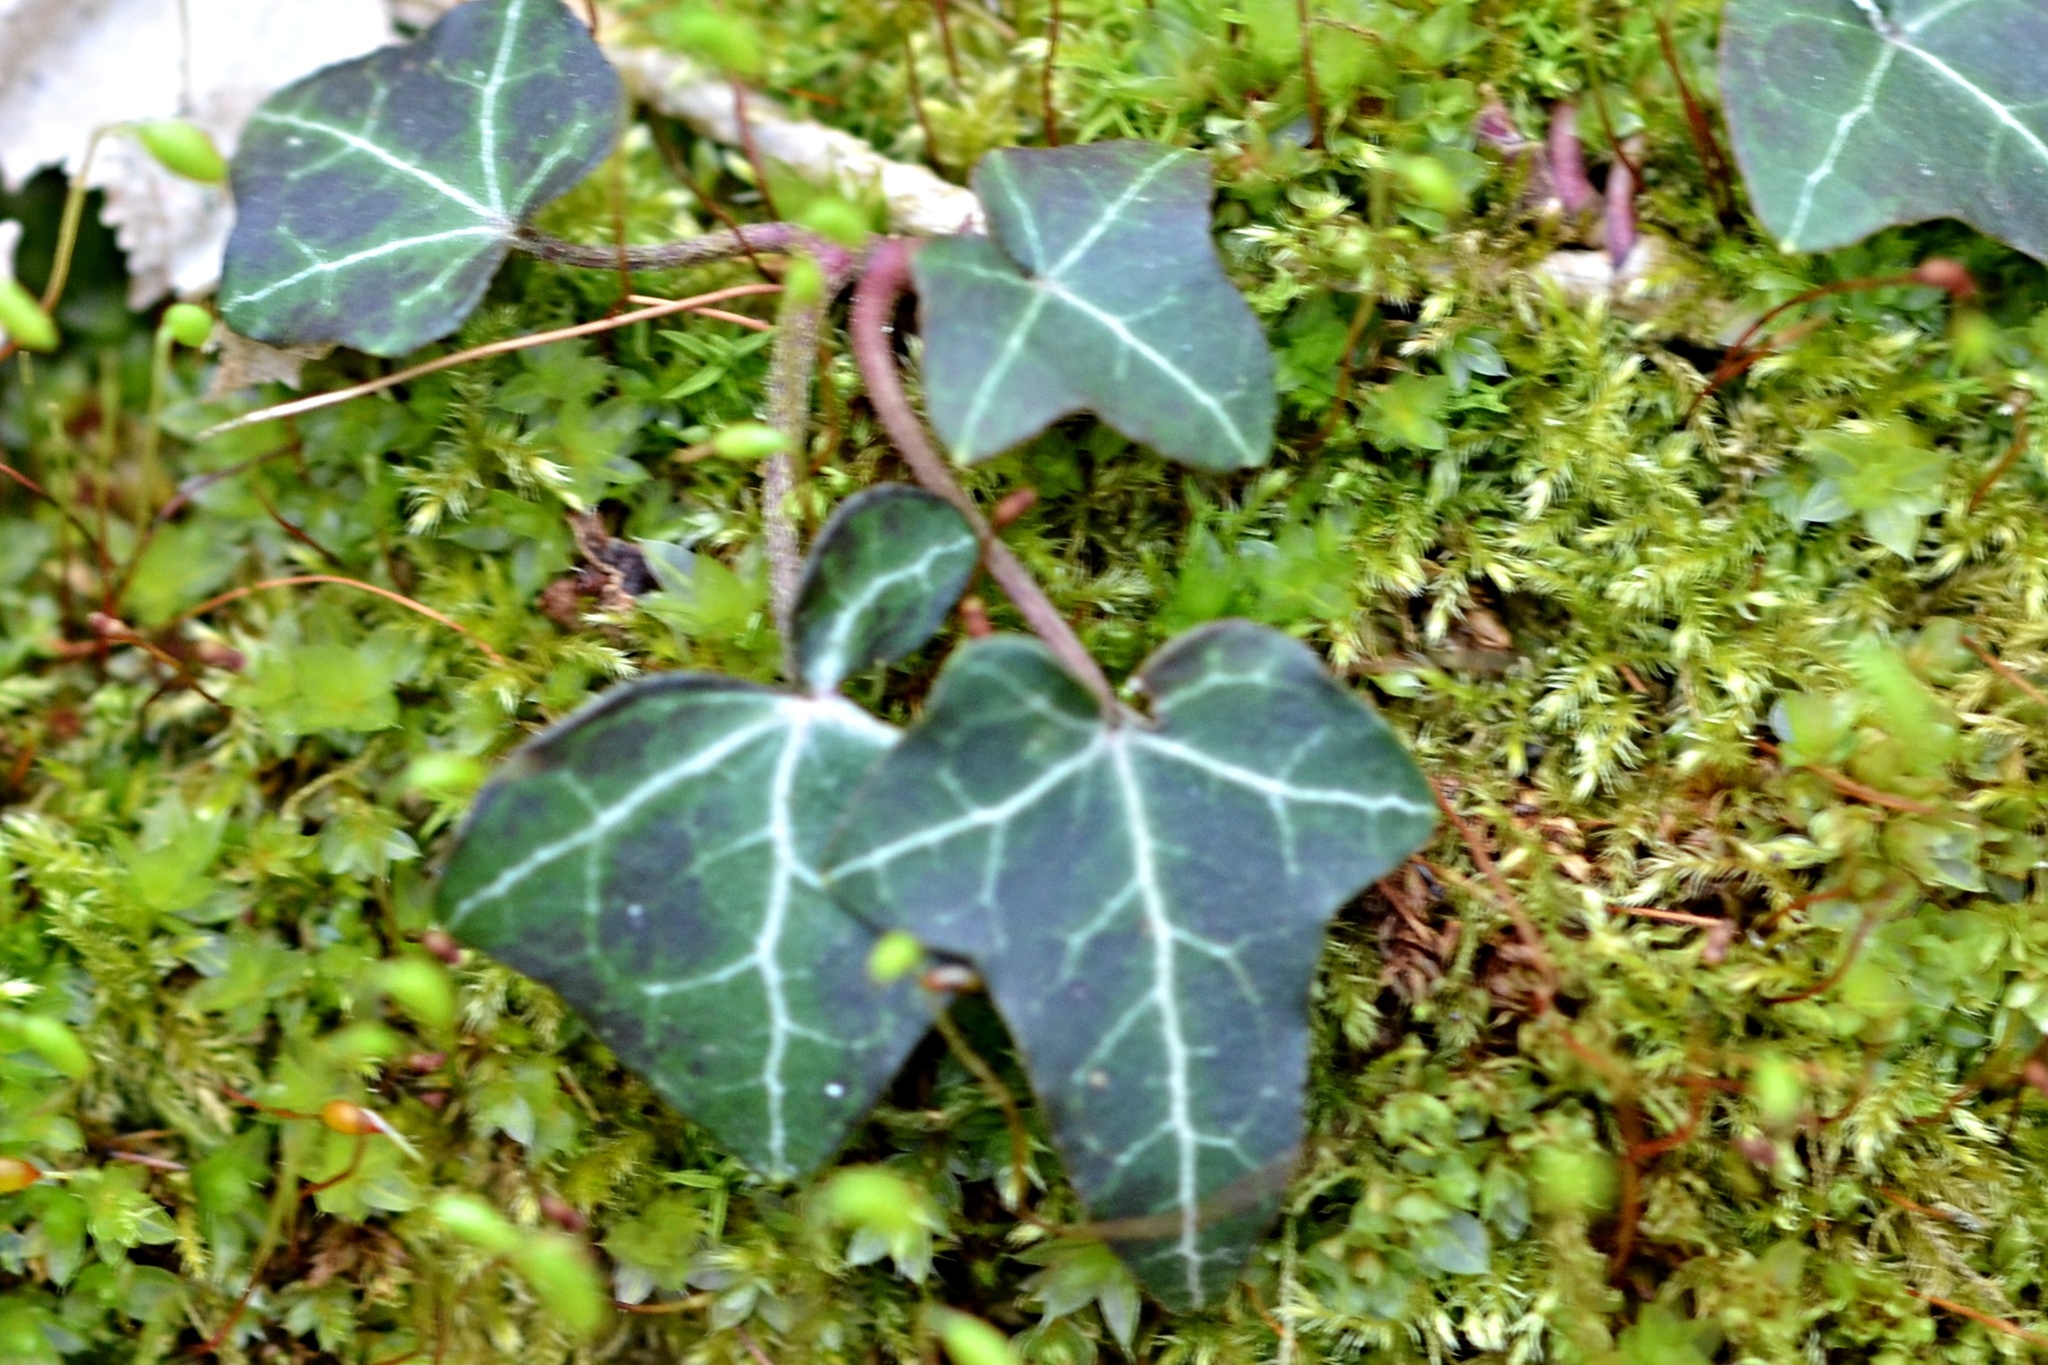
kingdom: Plantae
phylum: Tracheophyta
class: Magnoliopsida
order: Apiales
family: Araliaceae
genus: Hedera
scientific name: Hedera helix
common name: Ivy
